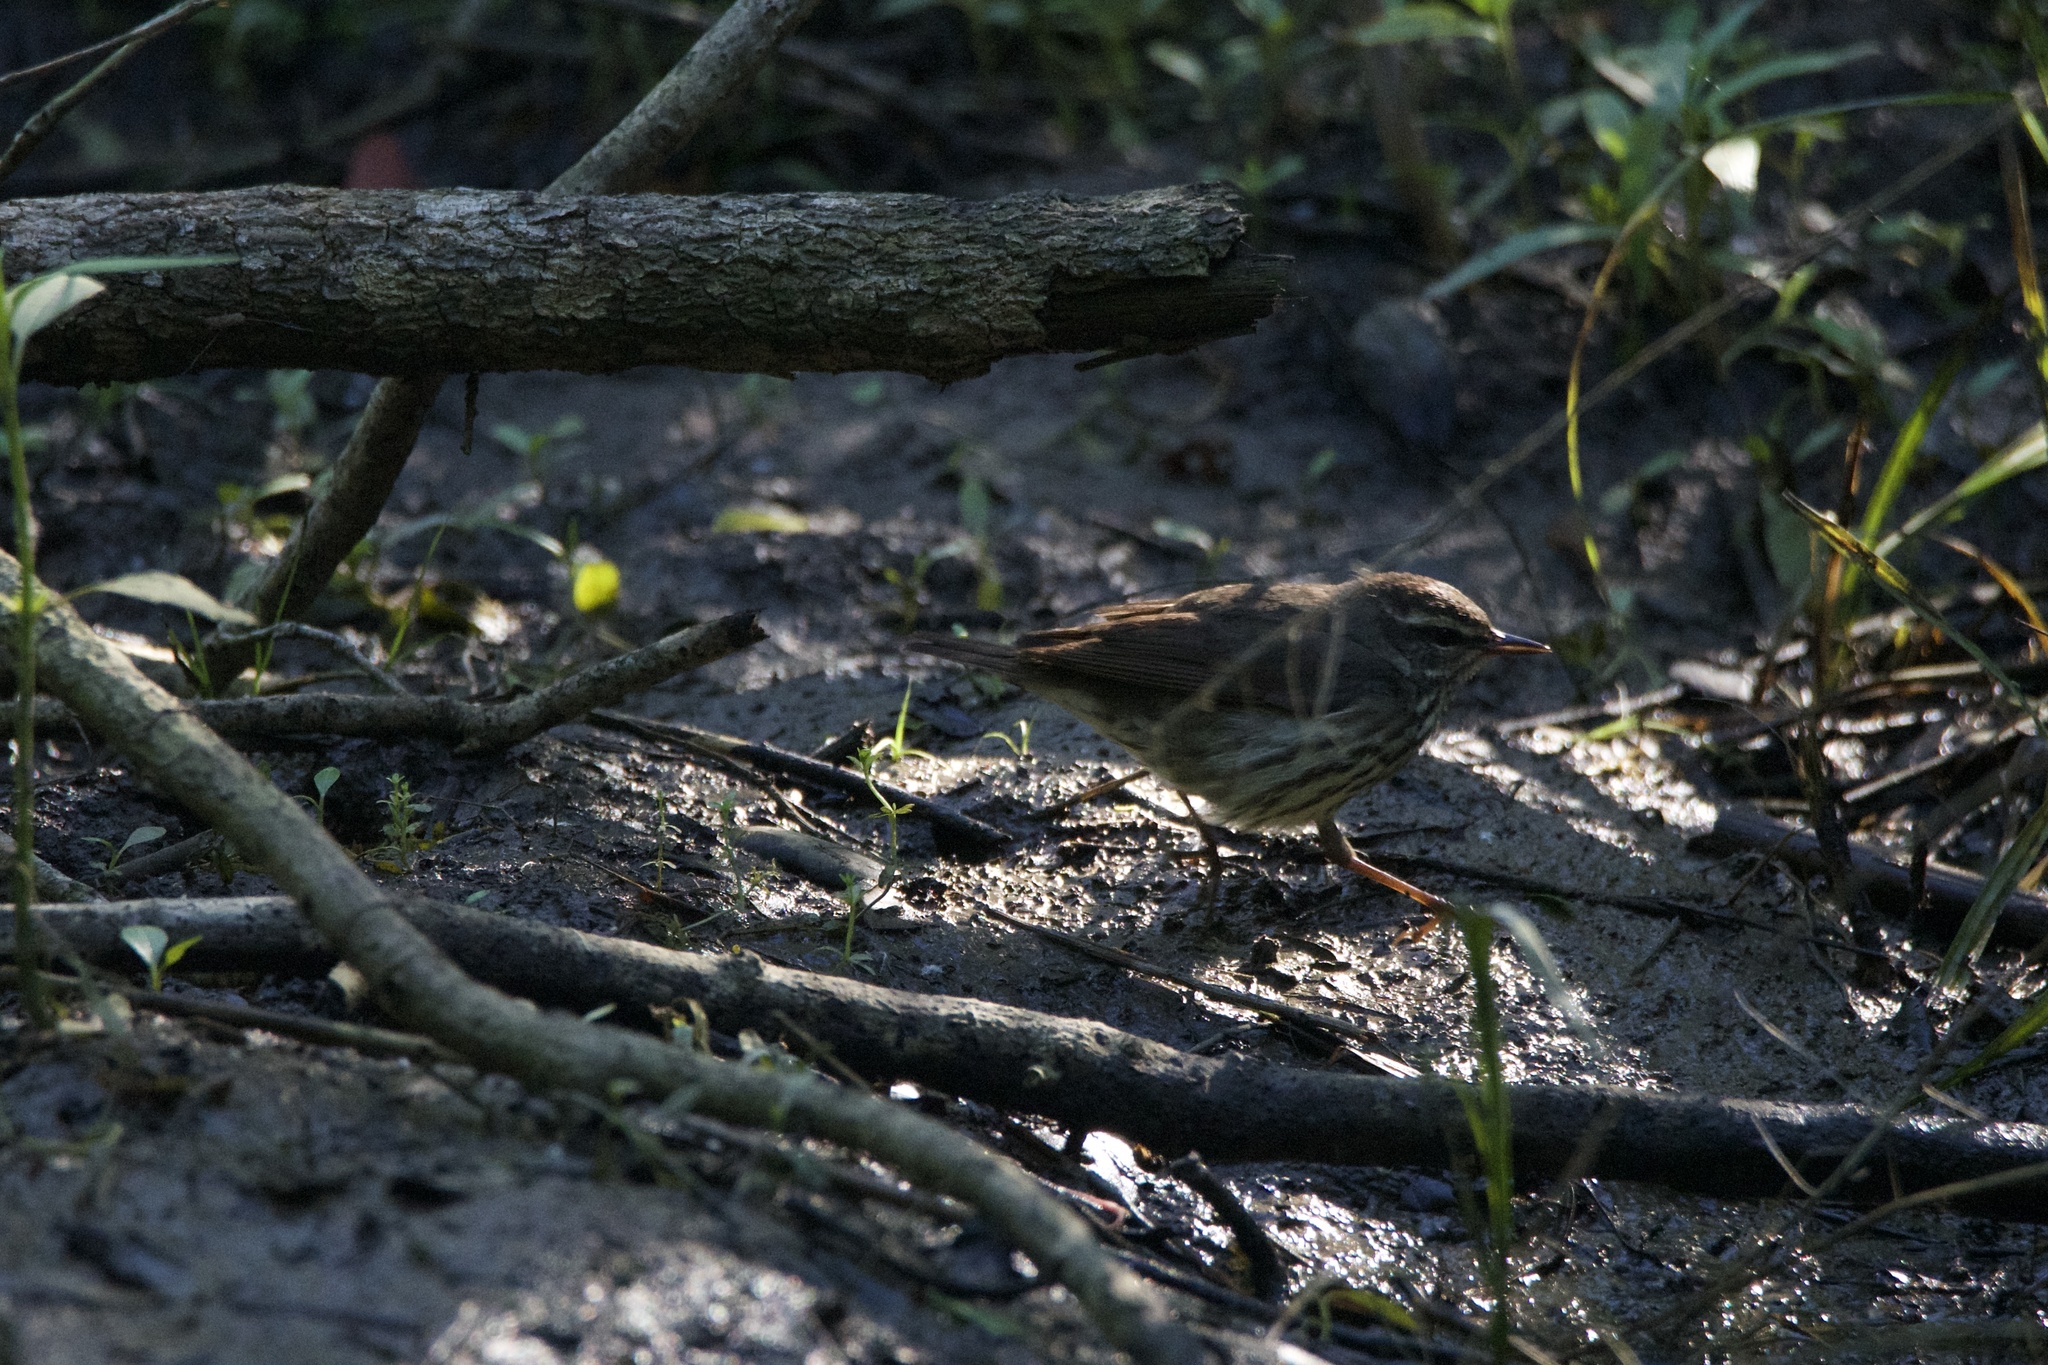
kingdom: Animalia
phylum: Chordata
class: Aves
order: Passeriformes
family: Parulidae
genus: Parkesia
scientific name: Parkesia noveboracensis
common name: Northern waterthrush
